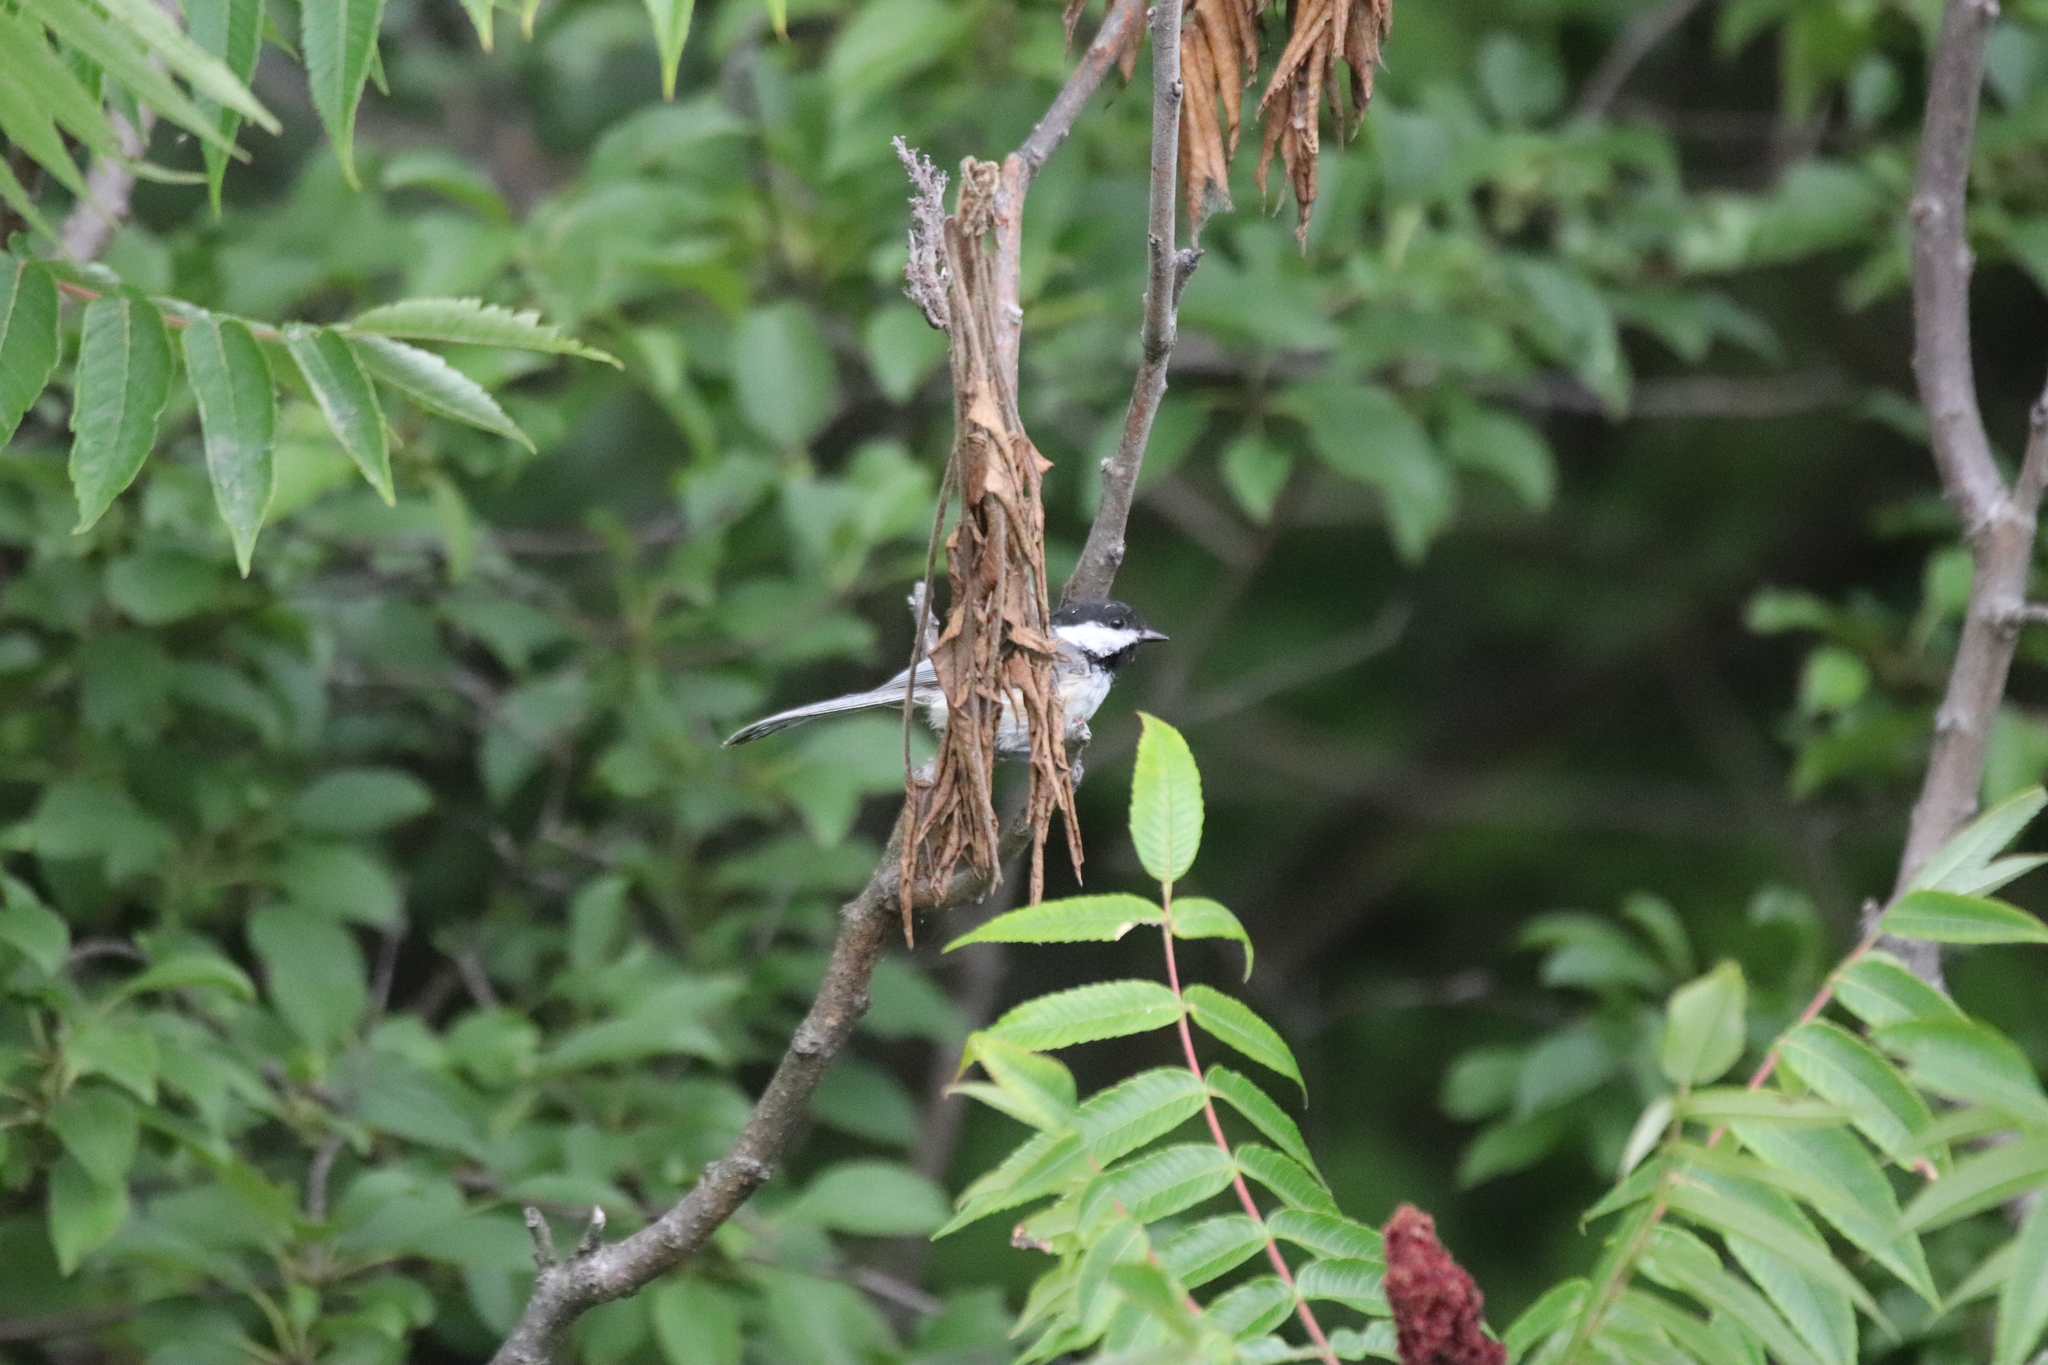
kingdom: Animalia
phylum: Chordata
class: Aves
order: Passeriformes
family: Paridae
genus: Poecile
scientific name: Poecile atricapillus
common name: Black-capped chickadee
